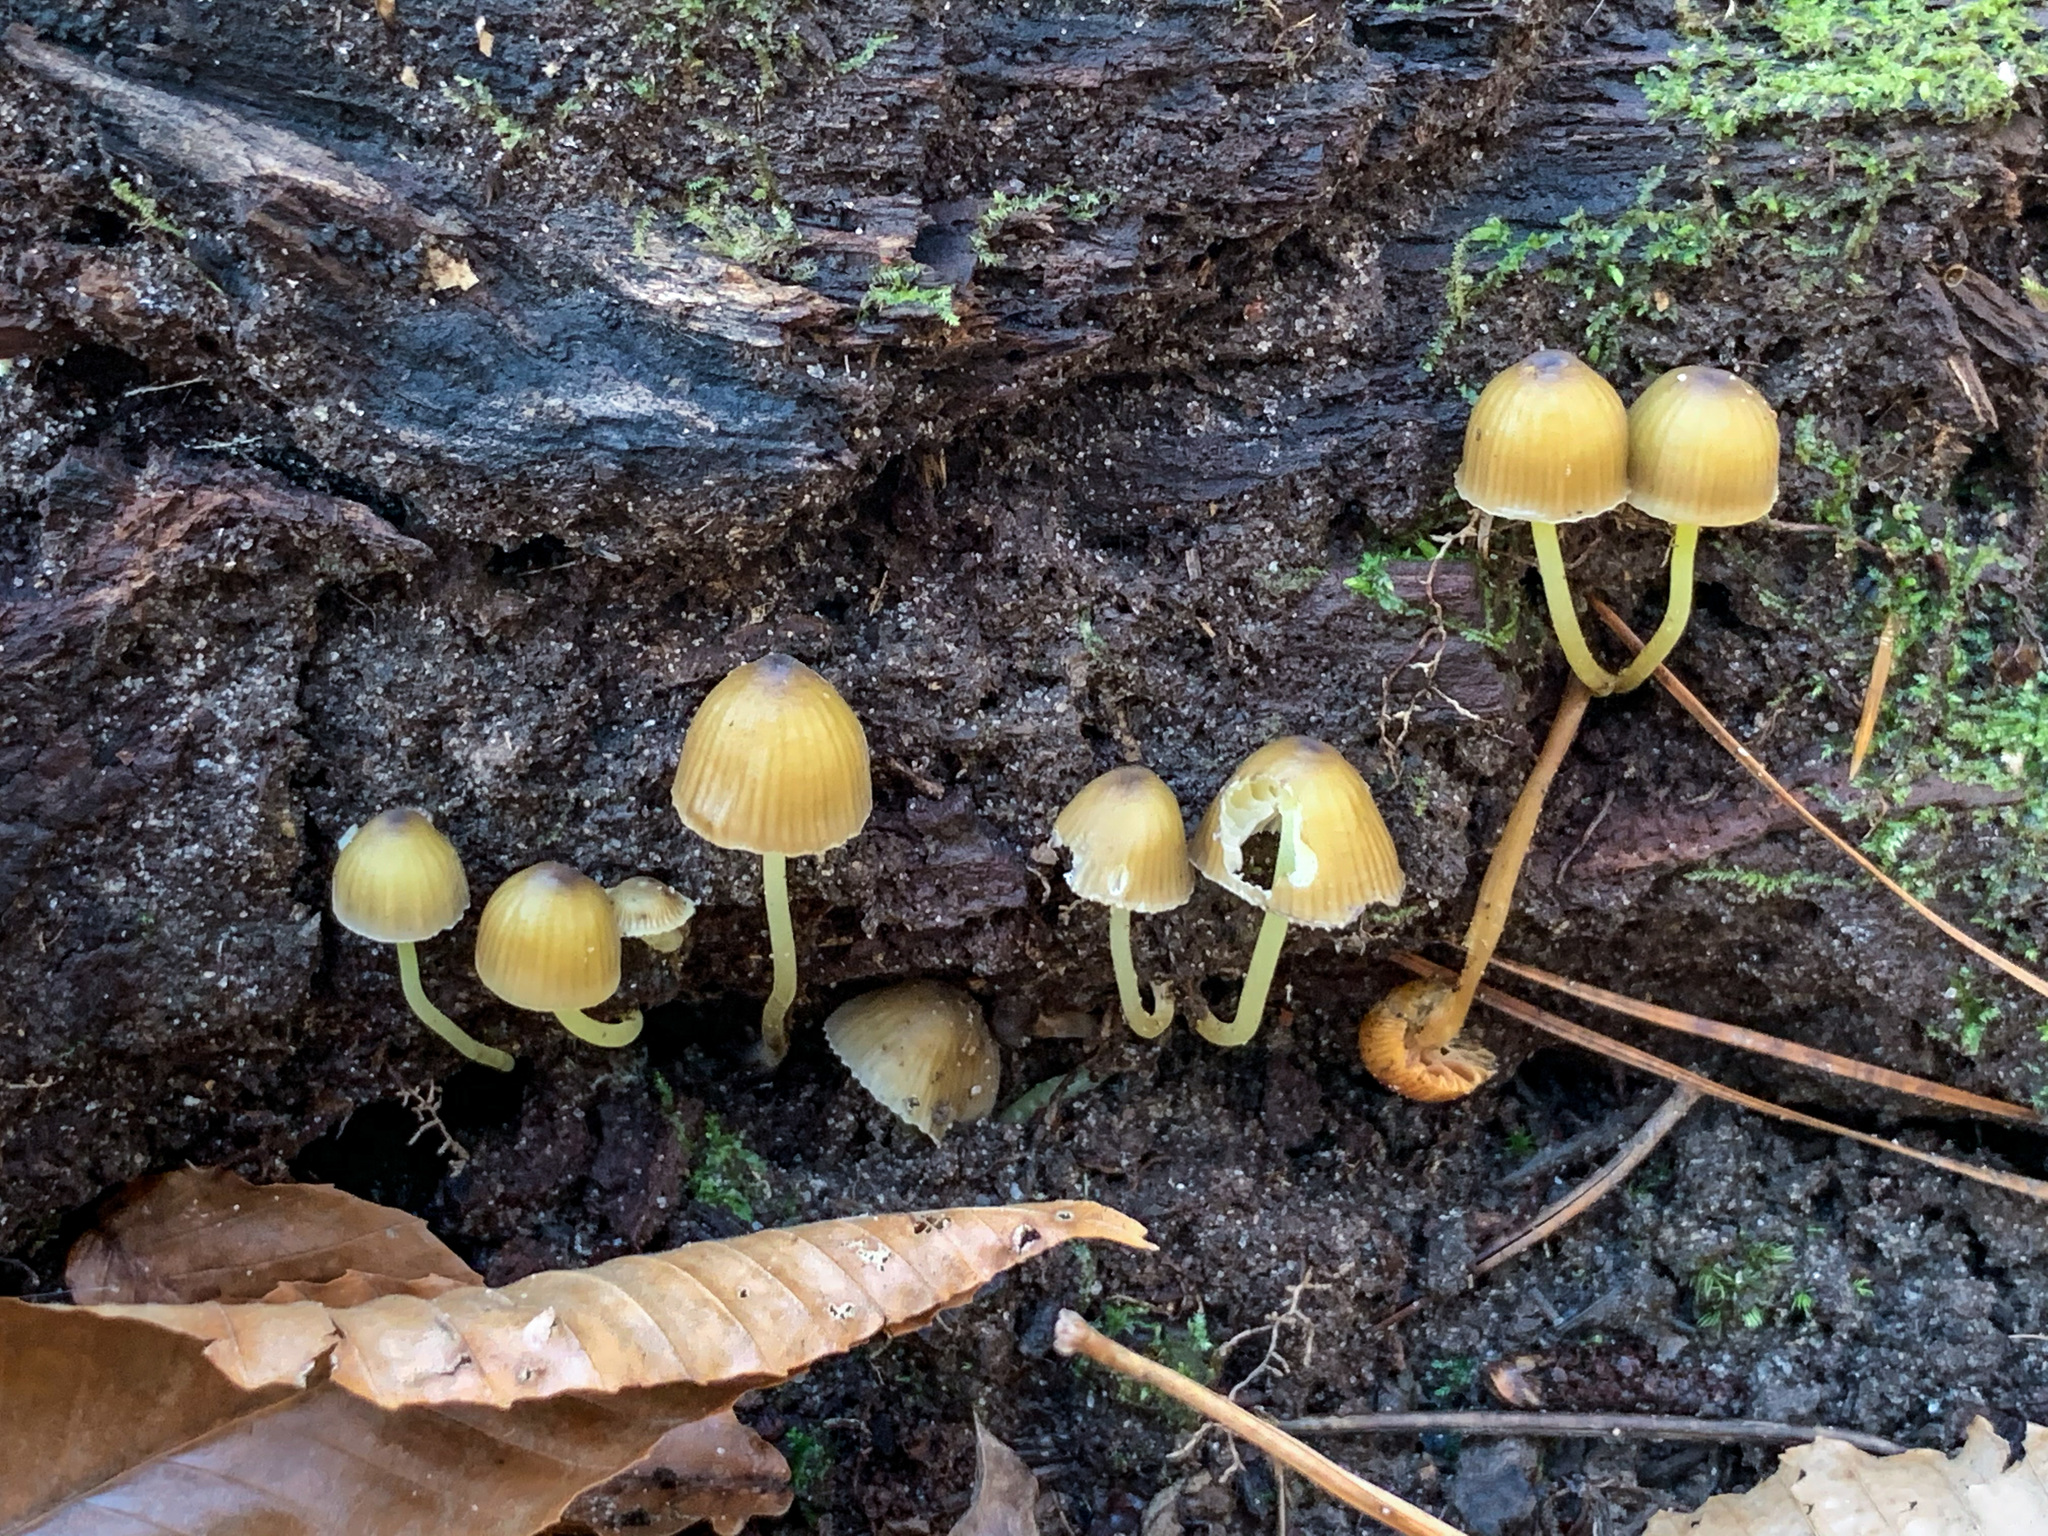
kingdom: Fungi
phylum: Basidiomycota
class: Agaricomycetes
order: Agaricales
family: Mycenaceae
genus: Mycena
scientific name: Mycena epipterygia
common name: Yellowleg bonnet
